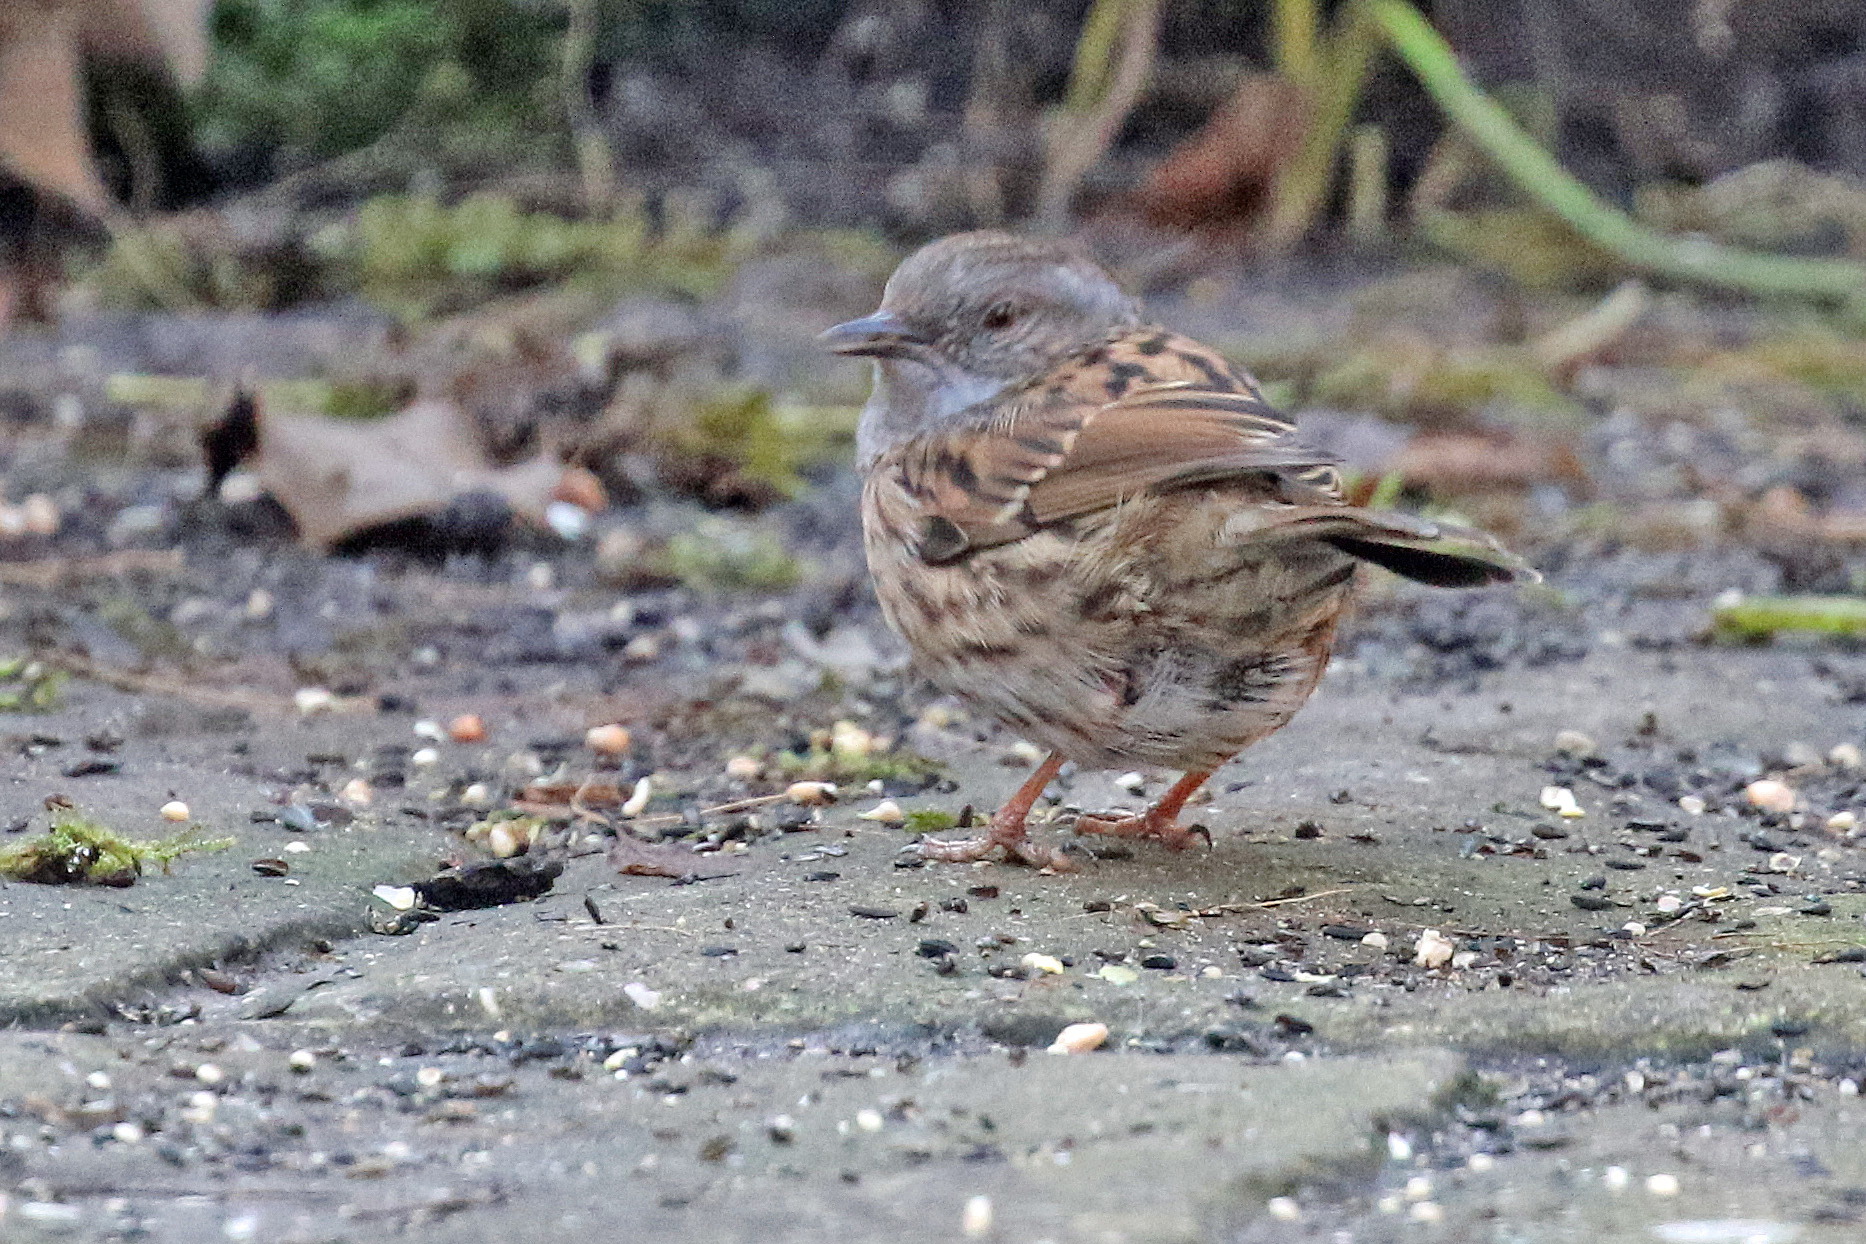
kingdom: Animalia
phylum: Chordata
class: Aves
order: Passeriformes
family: Prunellidae
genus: Prunella
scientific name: Prunella modularis
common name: Dunnock
